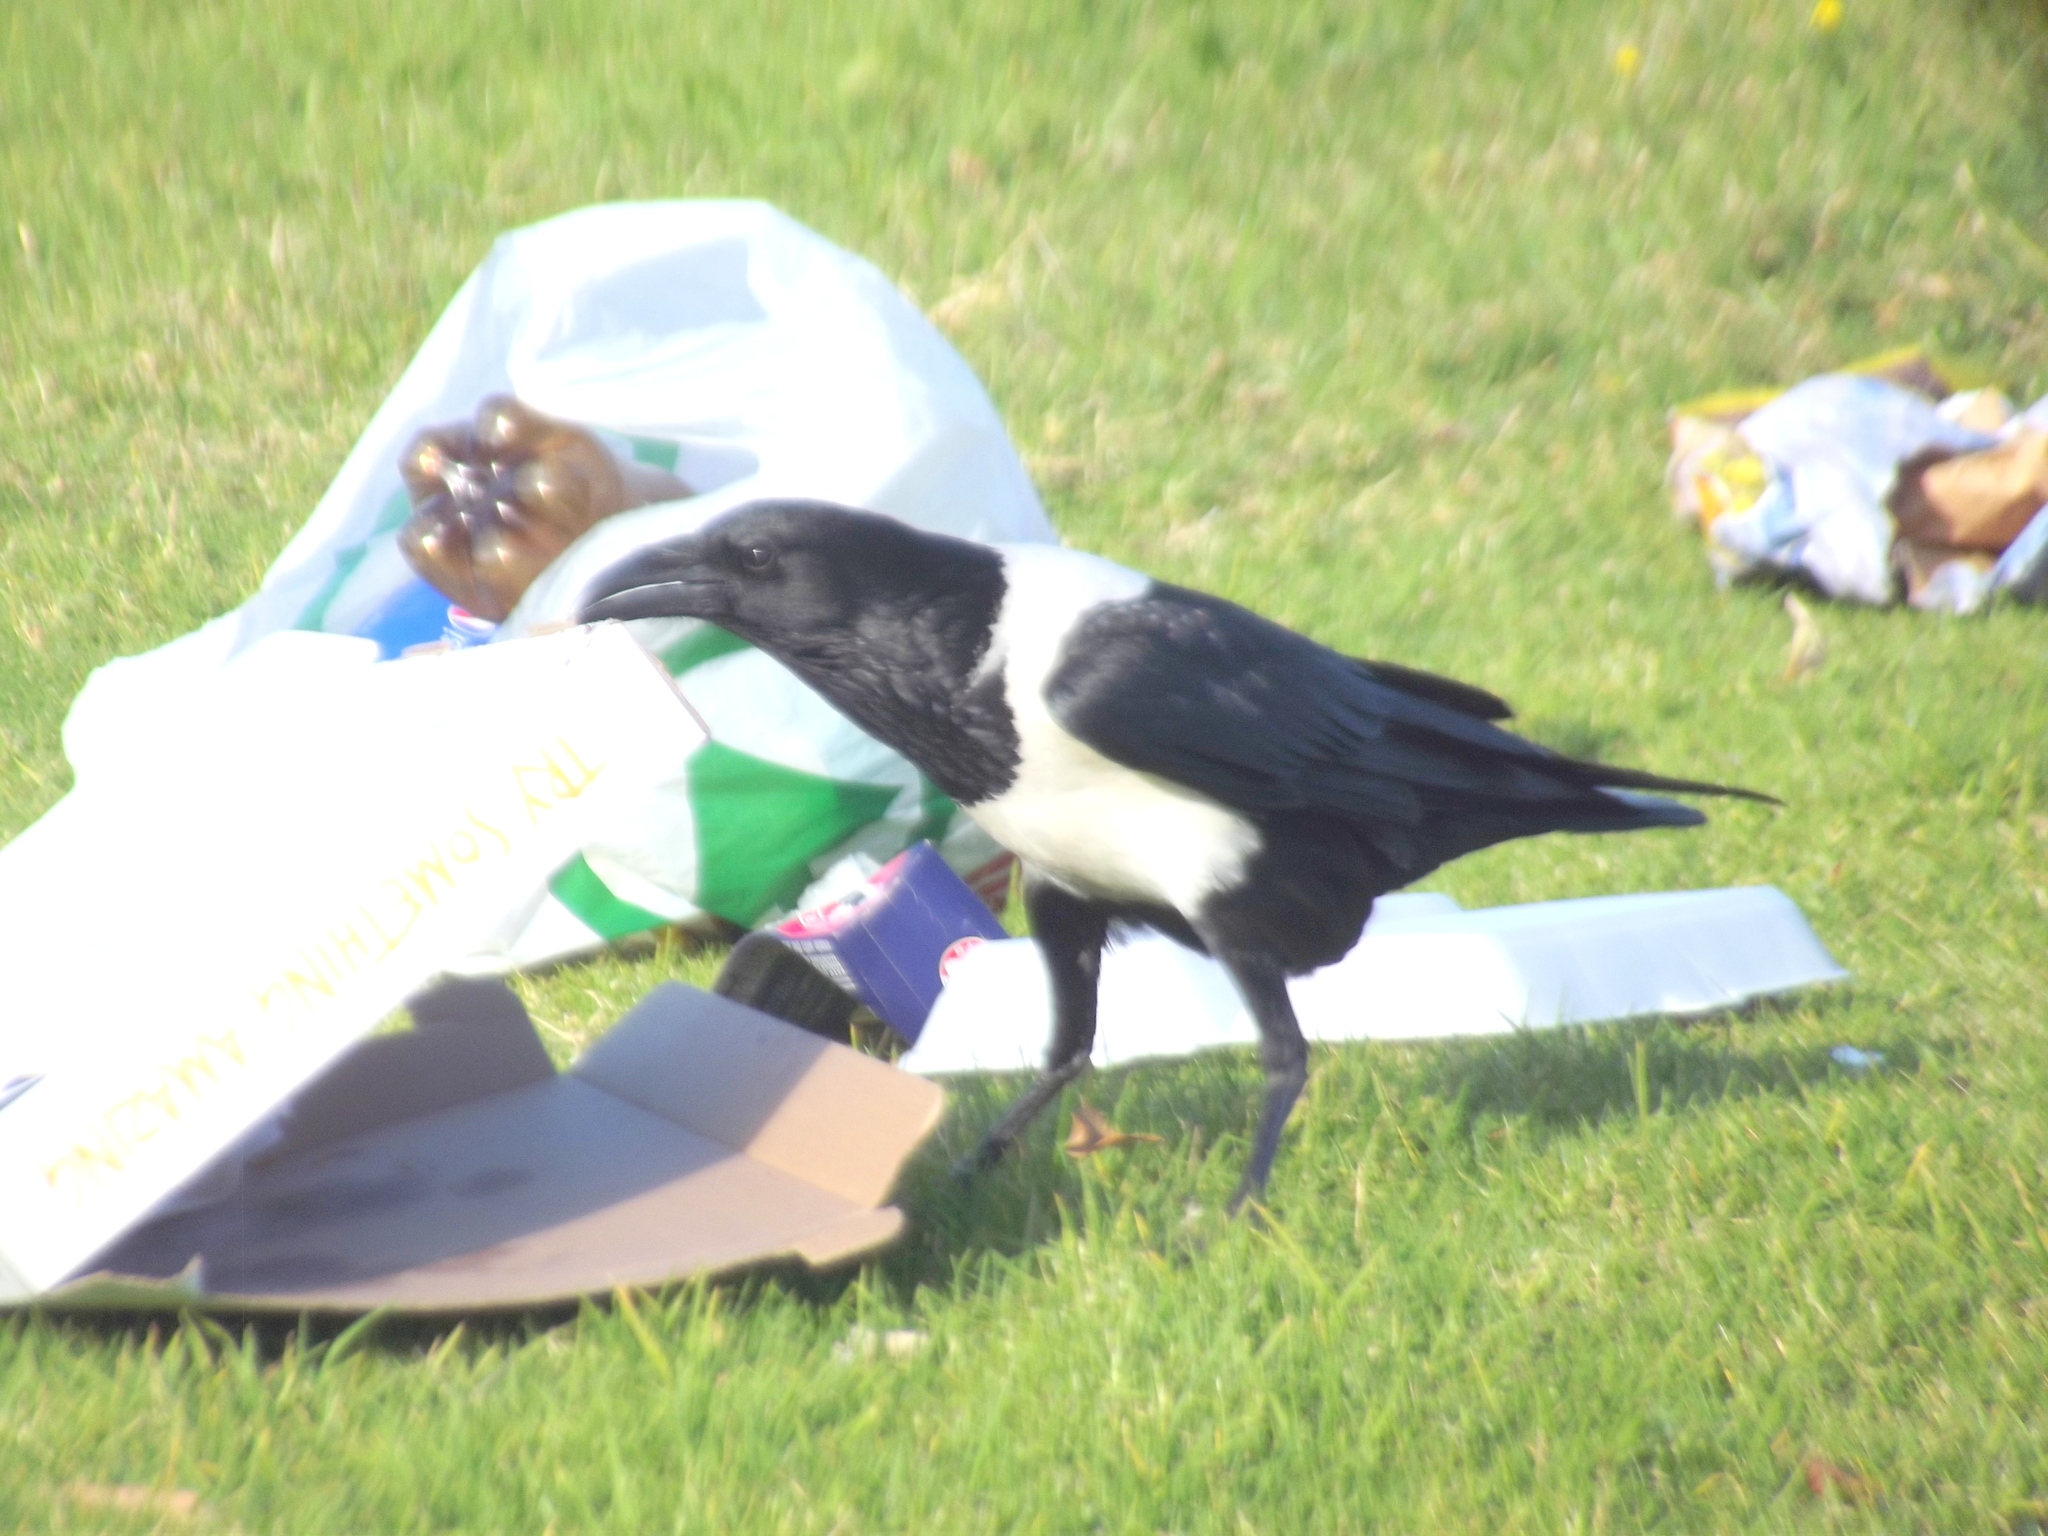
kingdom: Animalia
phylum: Chordata
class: Aves
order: Passeriformes
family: Corvidae
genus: Corvus
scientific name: Corvus albus
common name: Pied crow
